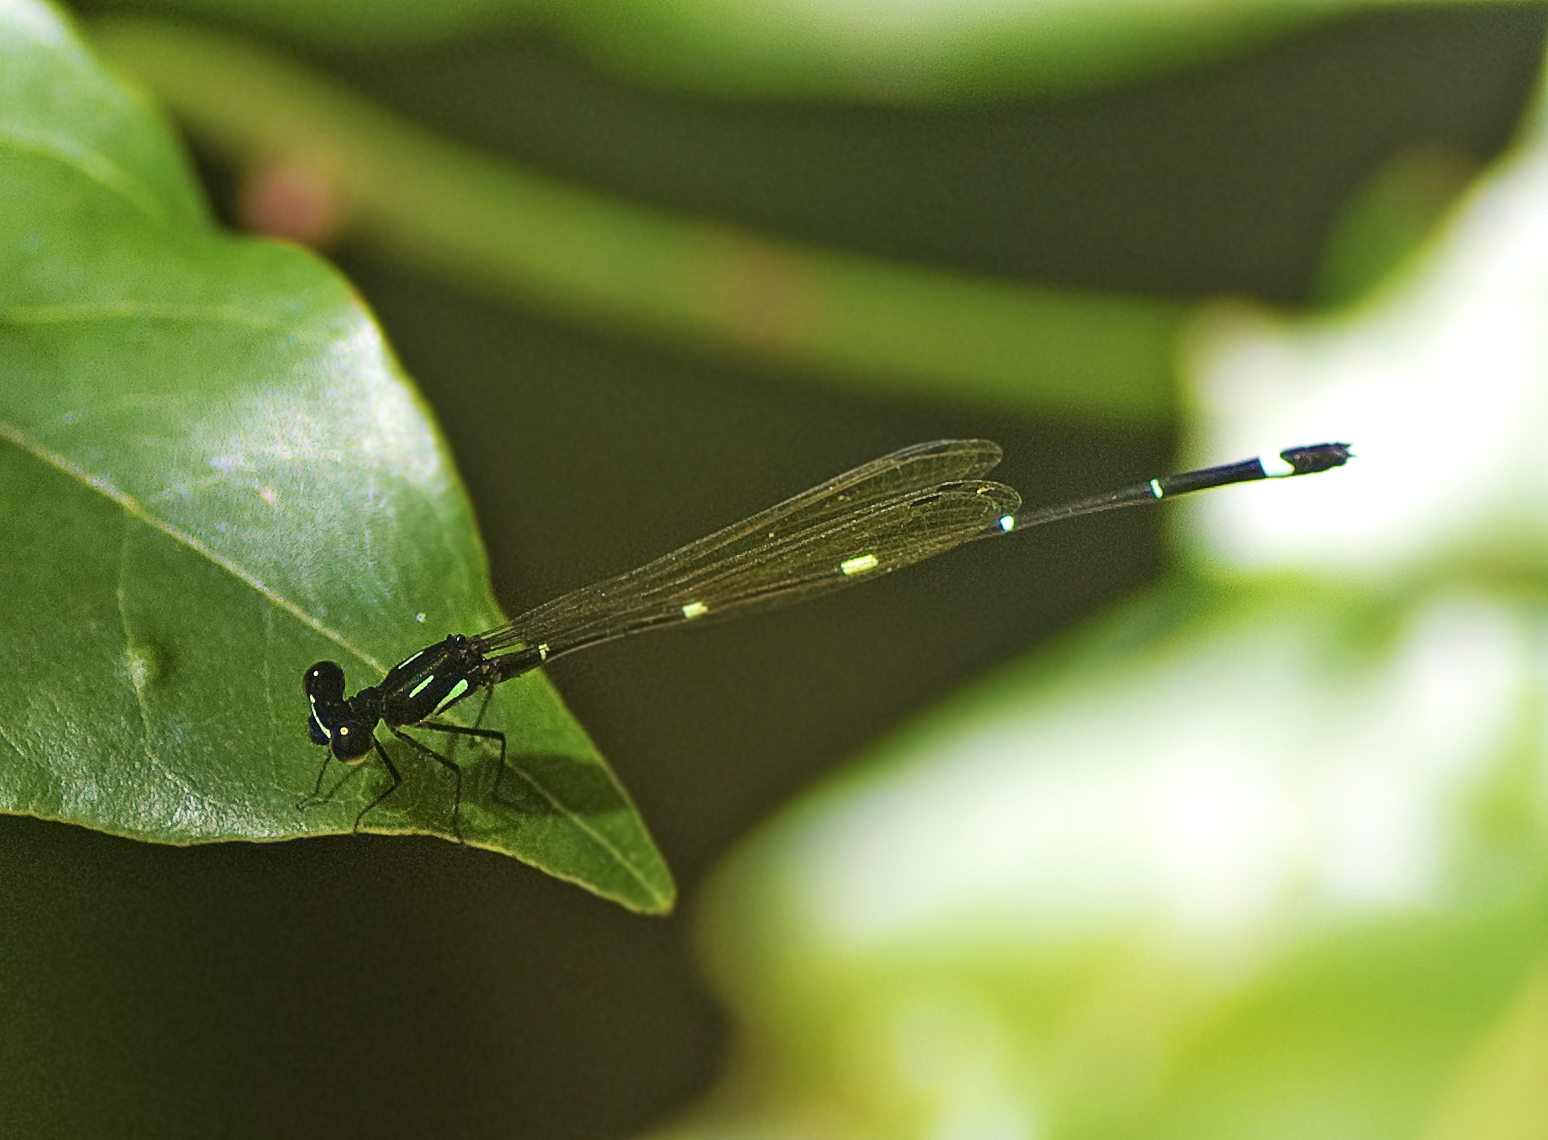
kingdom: Animalia
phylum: Arthropoda
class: Insecta
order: Odonata
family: Platycnemididae
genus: Nososticta
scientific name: Nososticta solitaria
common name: Fivespot threadtail
